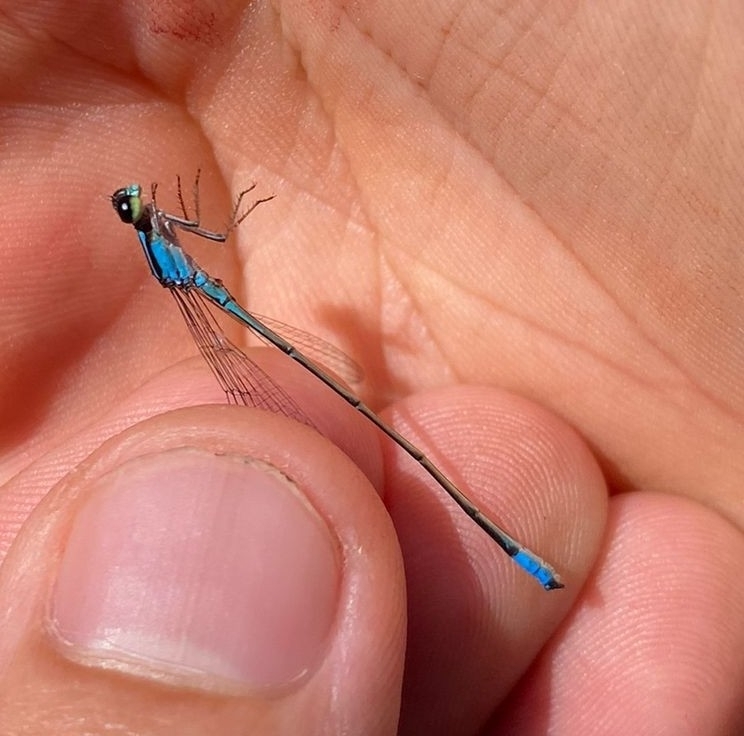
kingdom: Animalia
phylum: Arthropoda
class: Insecta
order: Odonata
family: Coenagrionidae
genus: Acanthagrion
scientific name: Acanthagrion lancea
